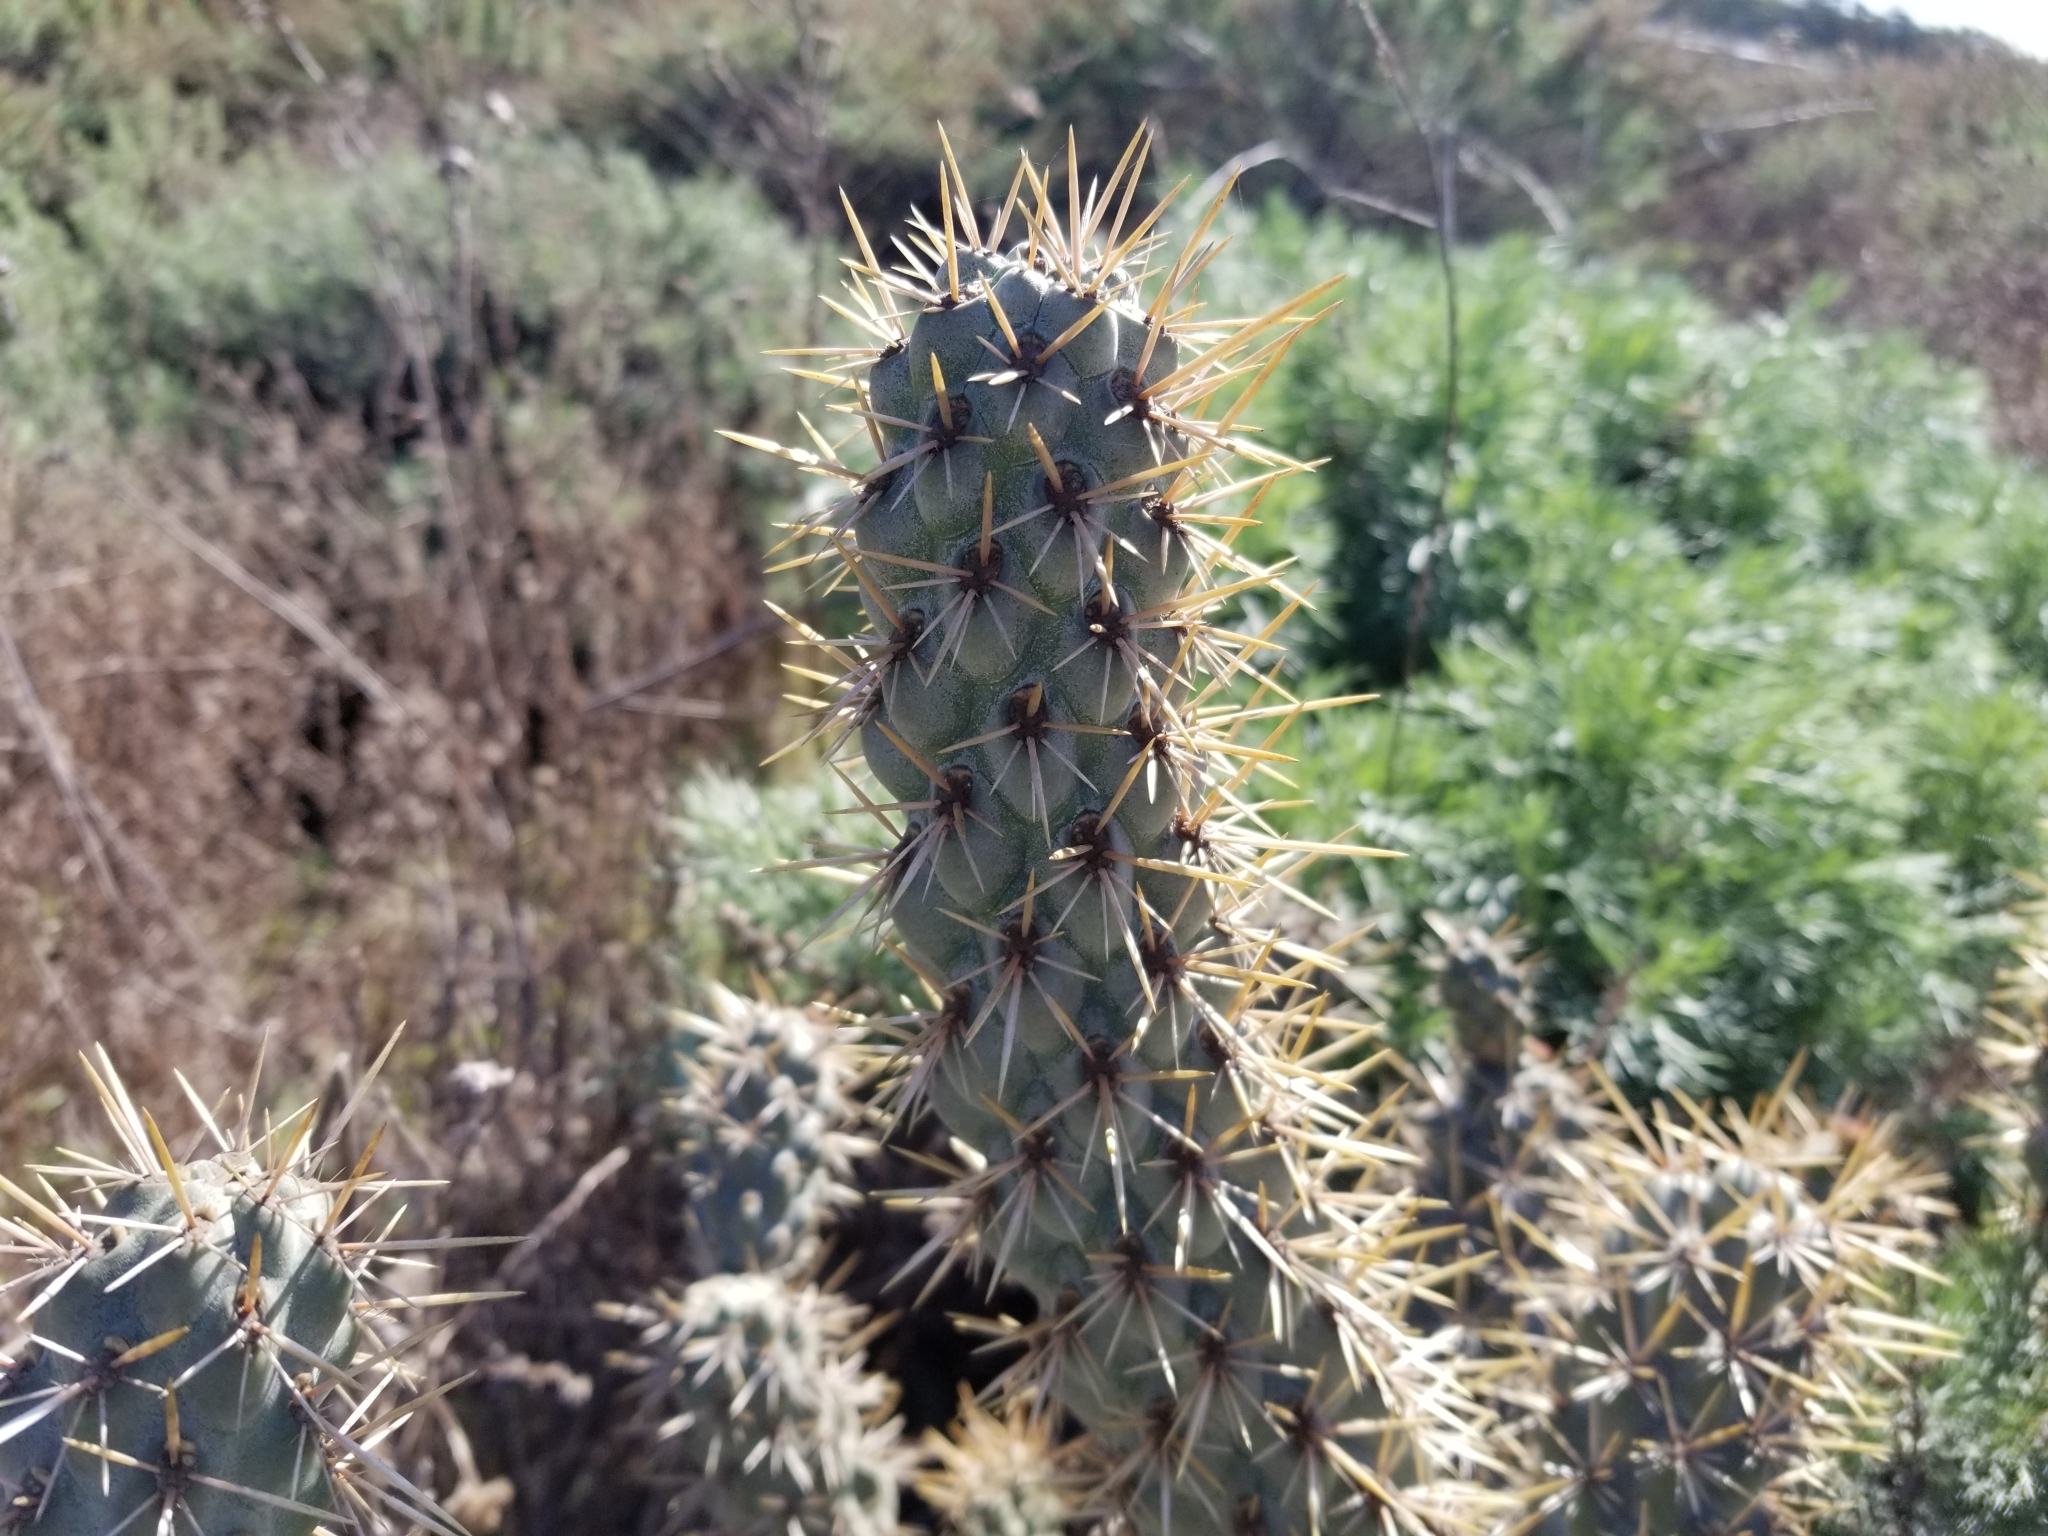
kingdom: Plantae
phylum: Tracheophyta
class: Magnoliopsida
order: Caryophyllales
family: Cactaceae
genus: Cylindropuntia
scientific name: Cylindropuntia prolifera
